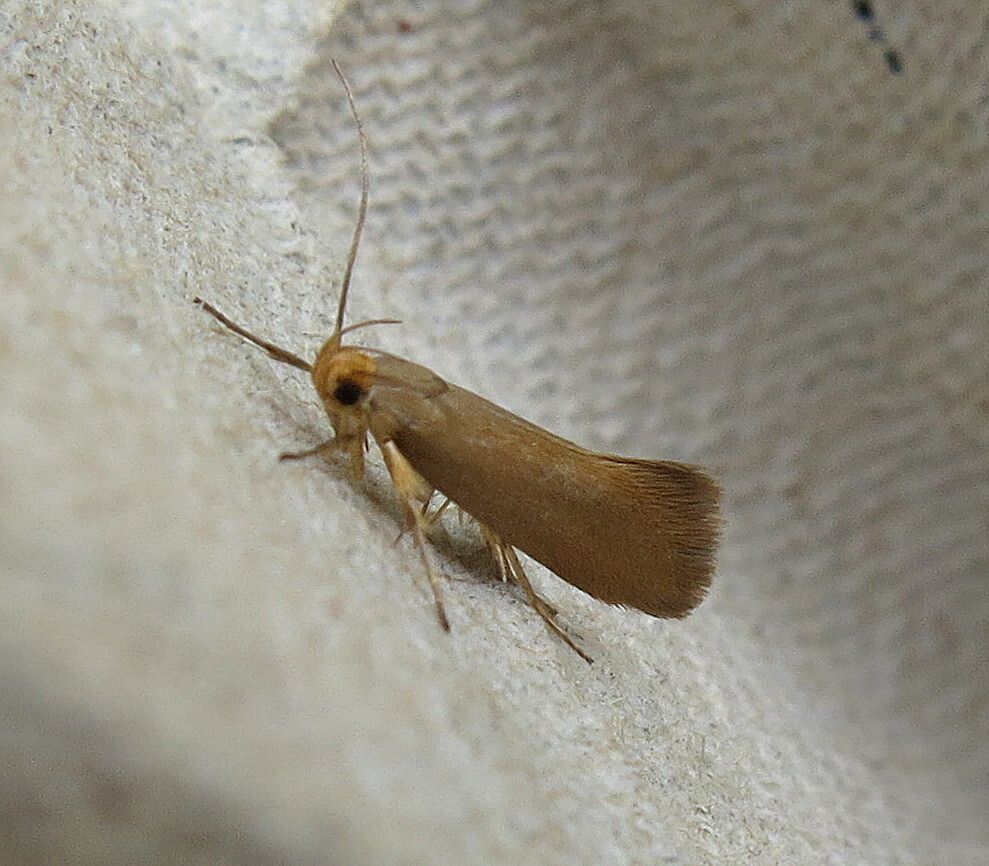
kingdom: Animalia
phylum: Arthropoda
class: Insecta
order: Lepidoptera
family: Oecophoridae
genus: Borkhausenia
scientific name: Borkhausenia Crassa unitella
